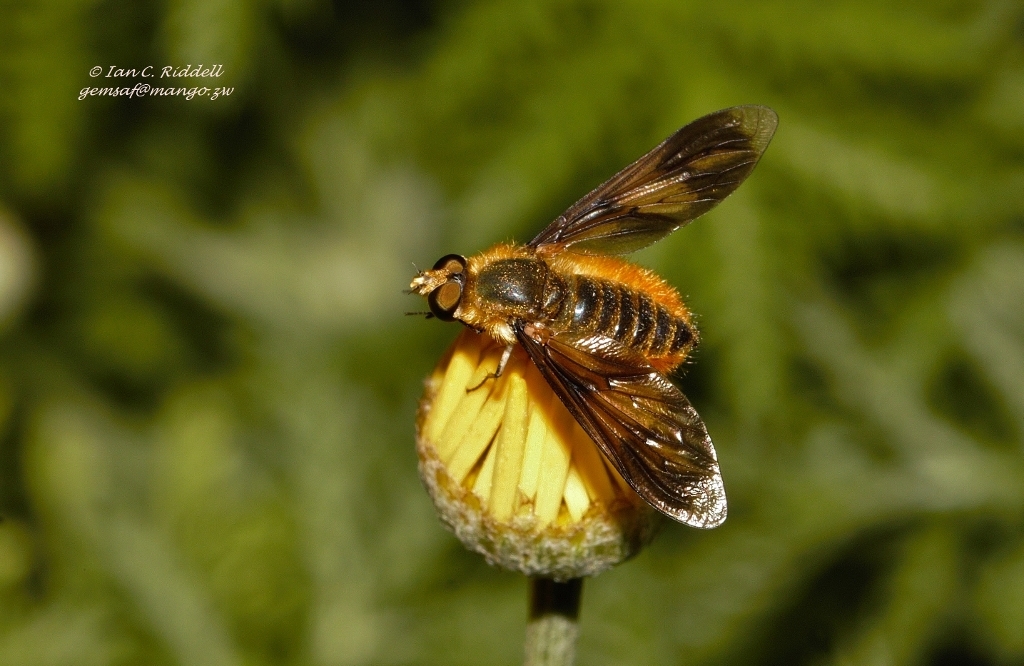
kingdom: Animalia
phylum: Arthropoda
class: Insecta
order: Diptera
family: Bombyliidae
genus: Notolomatia
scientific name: Notolomatia pictipennis
